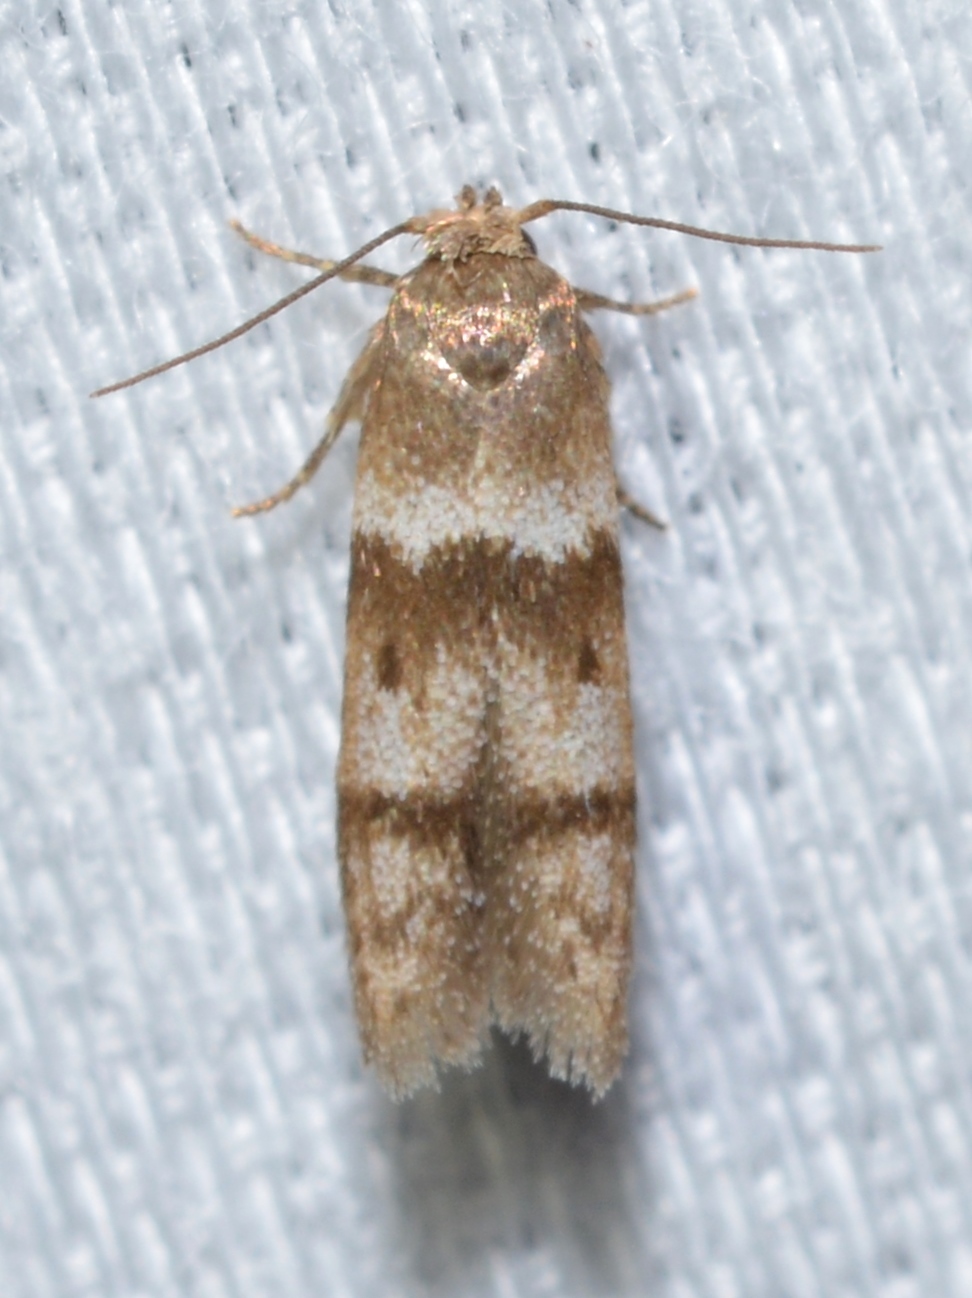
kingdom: Animalia
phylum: Arthropoda
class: Insecta
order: Lepidoptera
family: Blastobasidae
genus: Blastobasis
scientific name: Blastobasis pulchella
